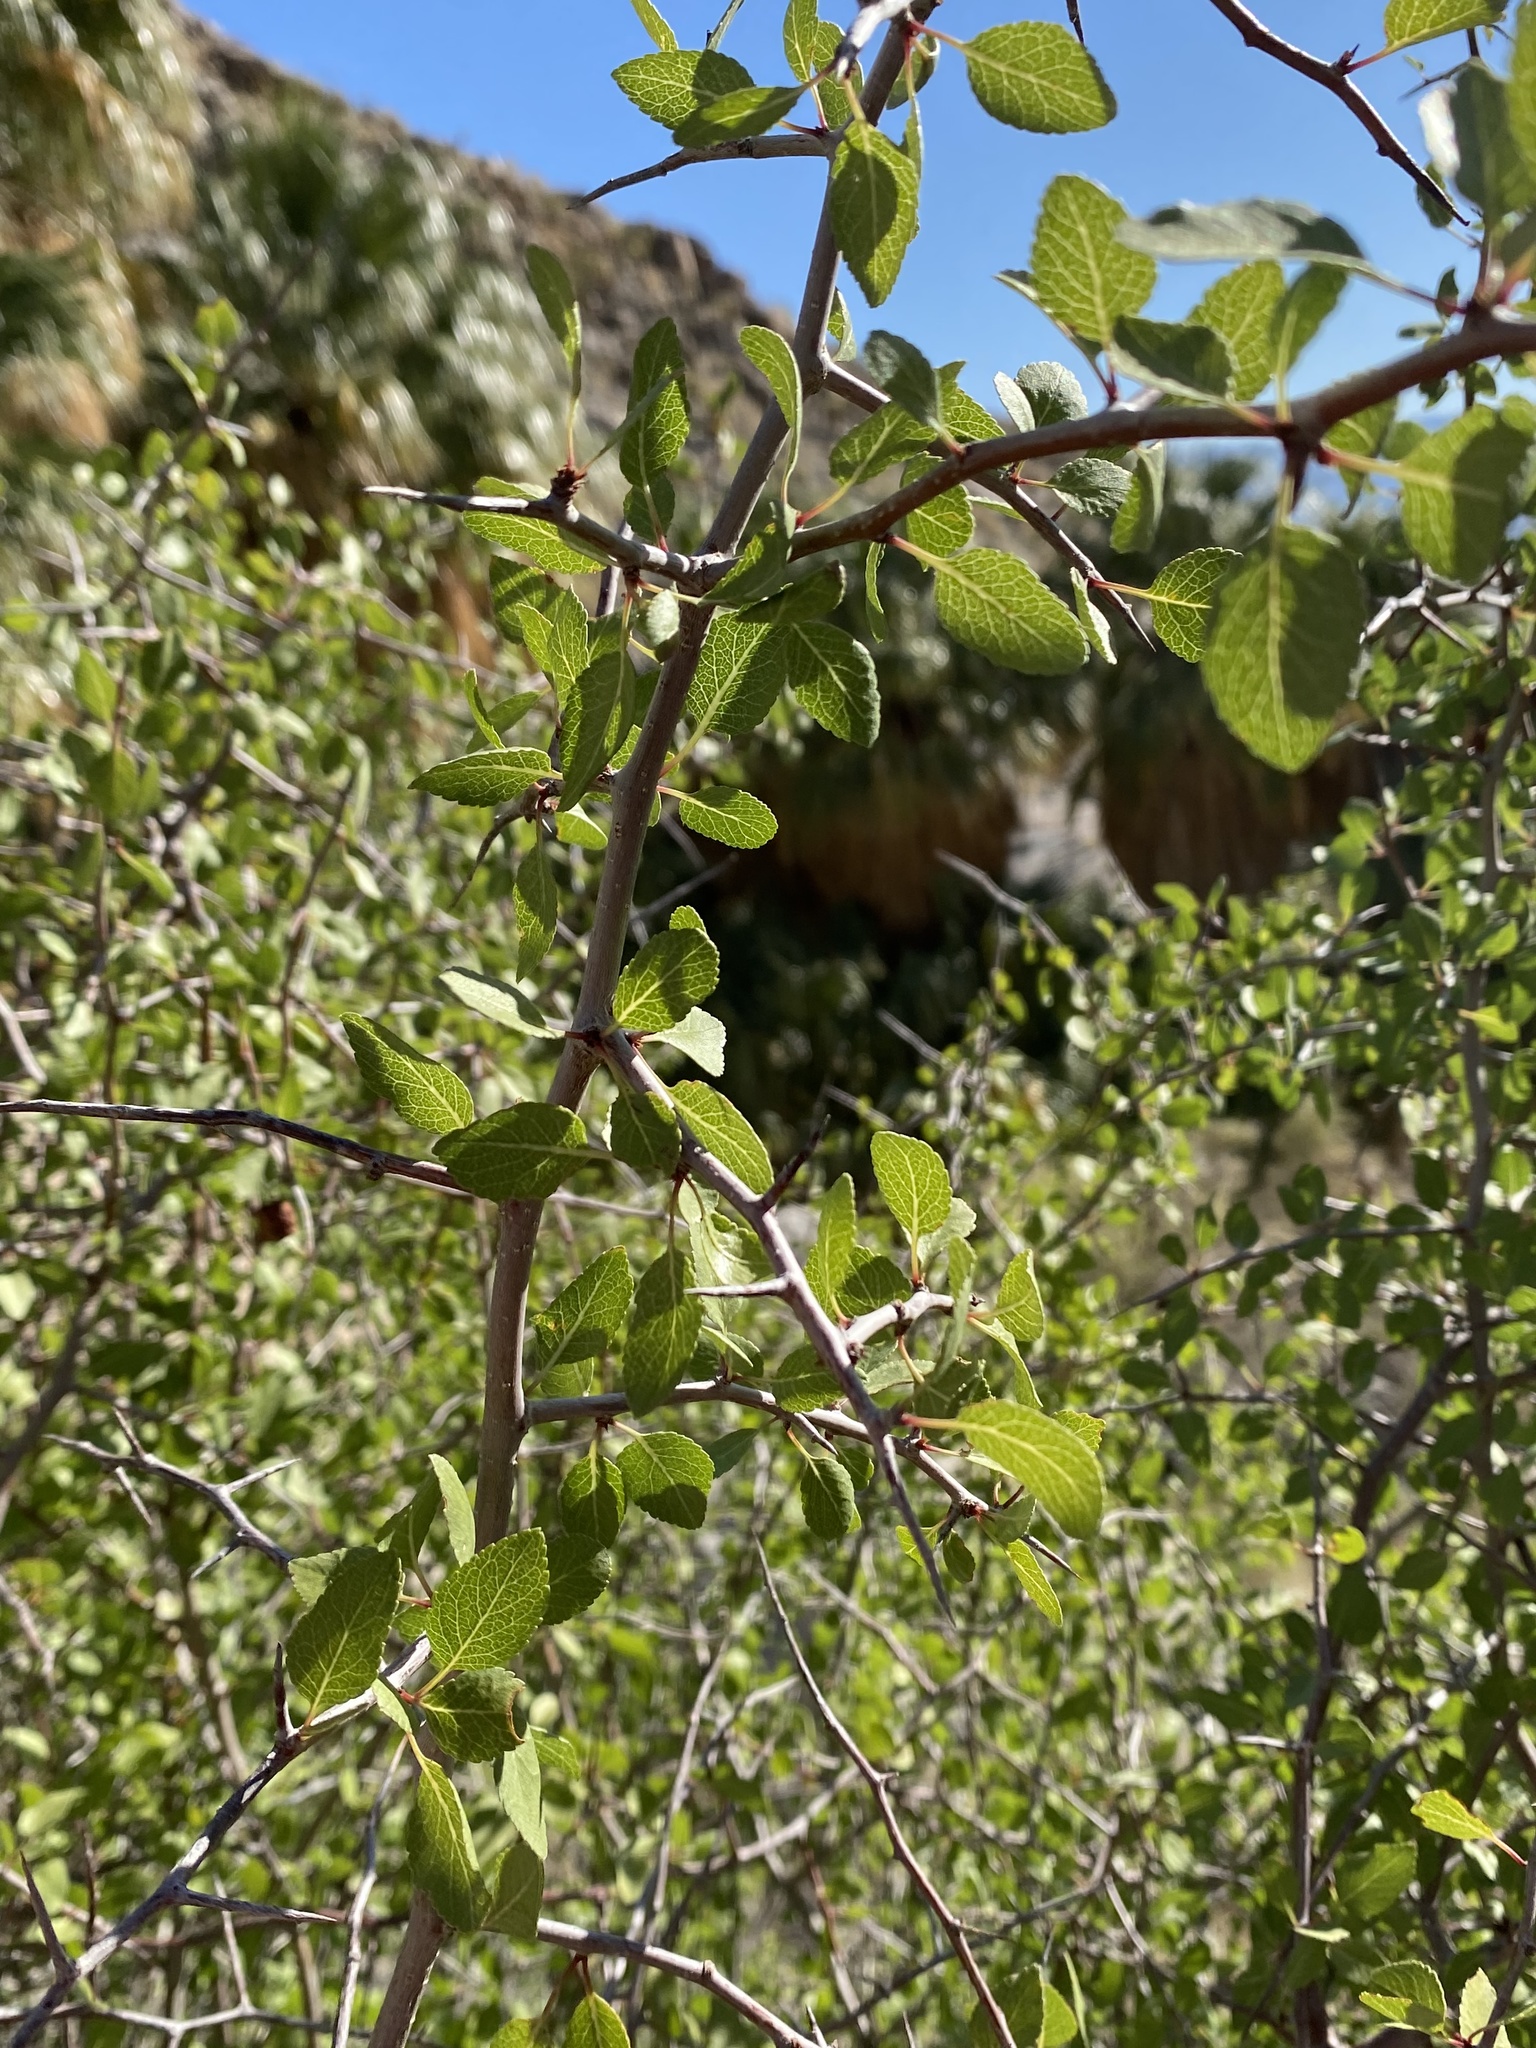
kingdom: Plantae
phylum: Tracheophyta
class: Magnoliopsida
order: Rosales
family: Rosaceae
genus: Prunus
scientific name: Prunus fremontii
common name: Desert apricot
